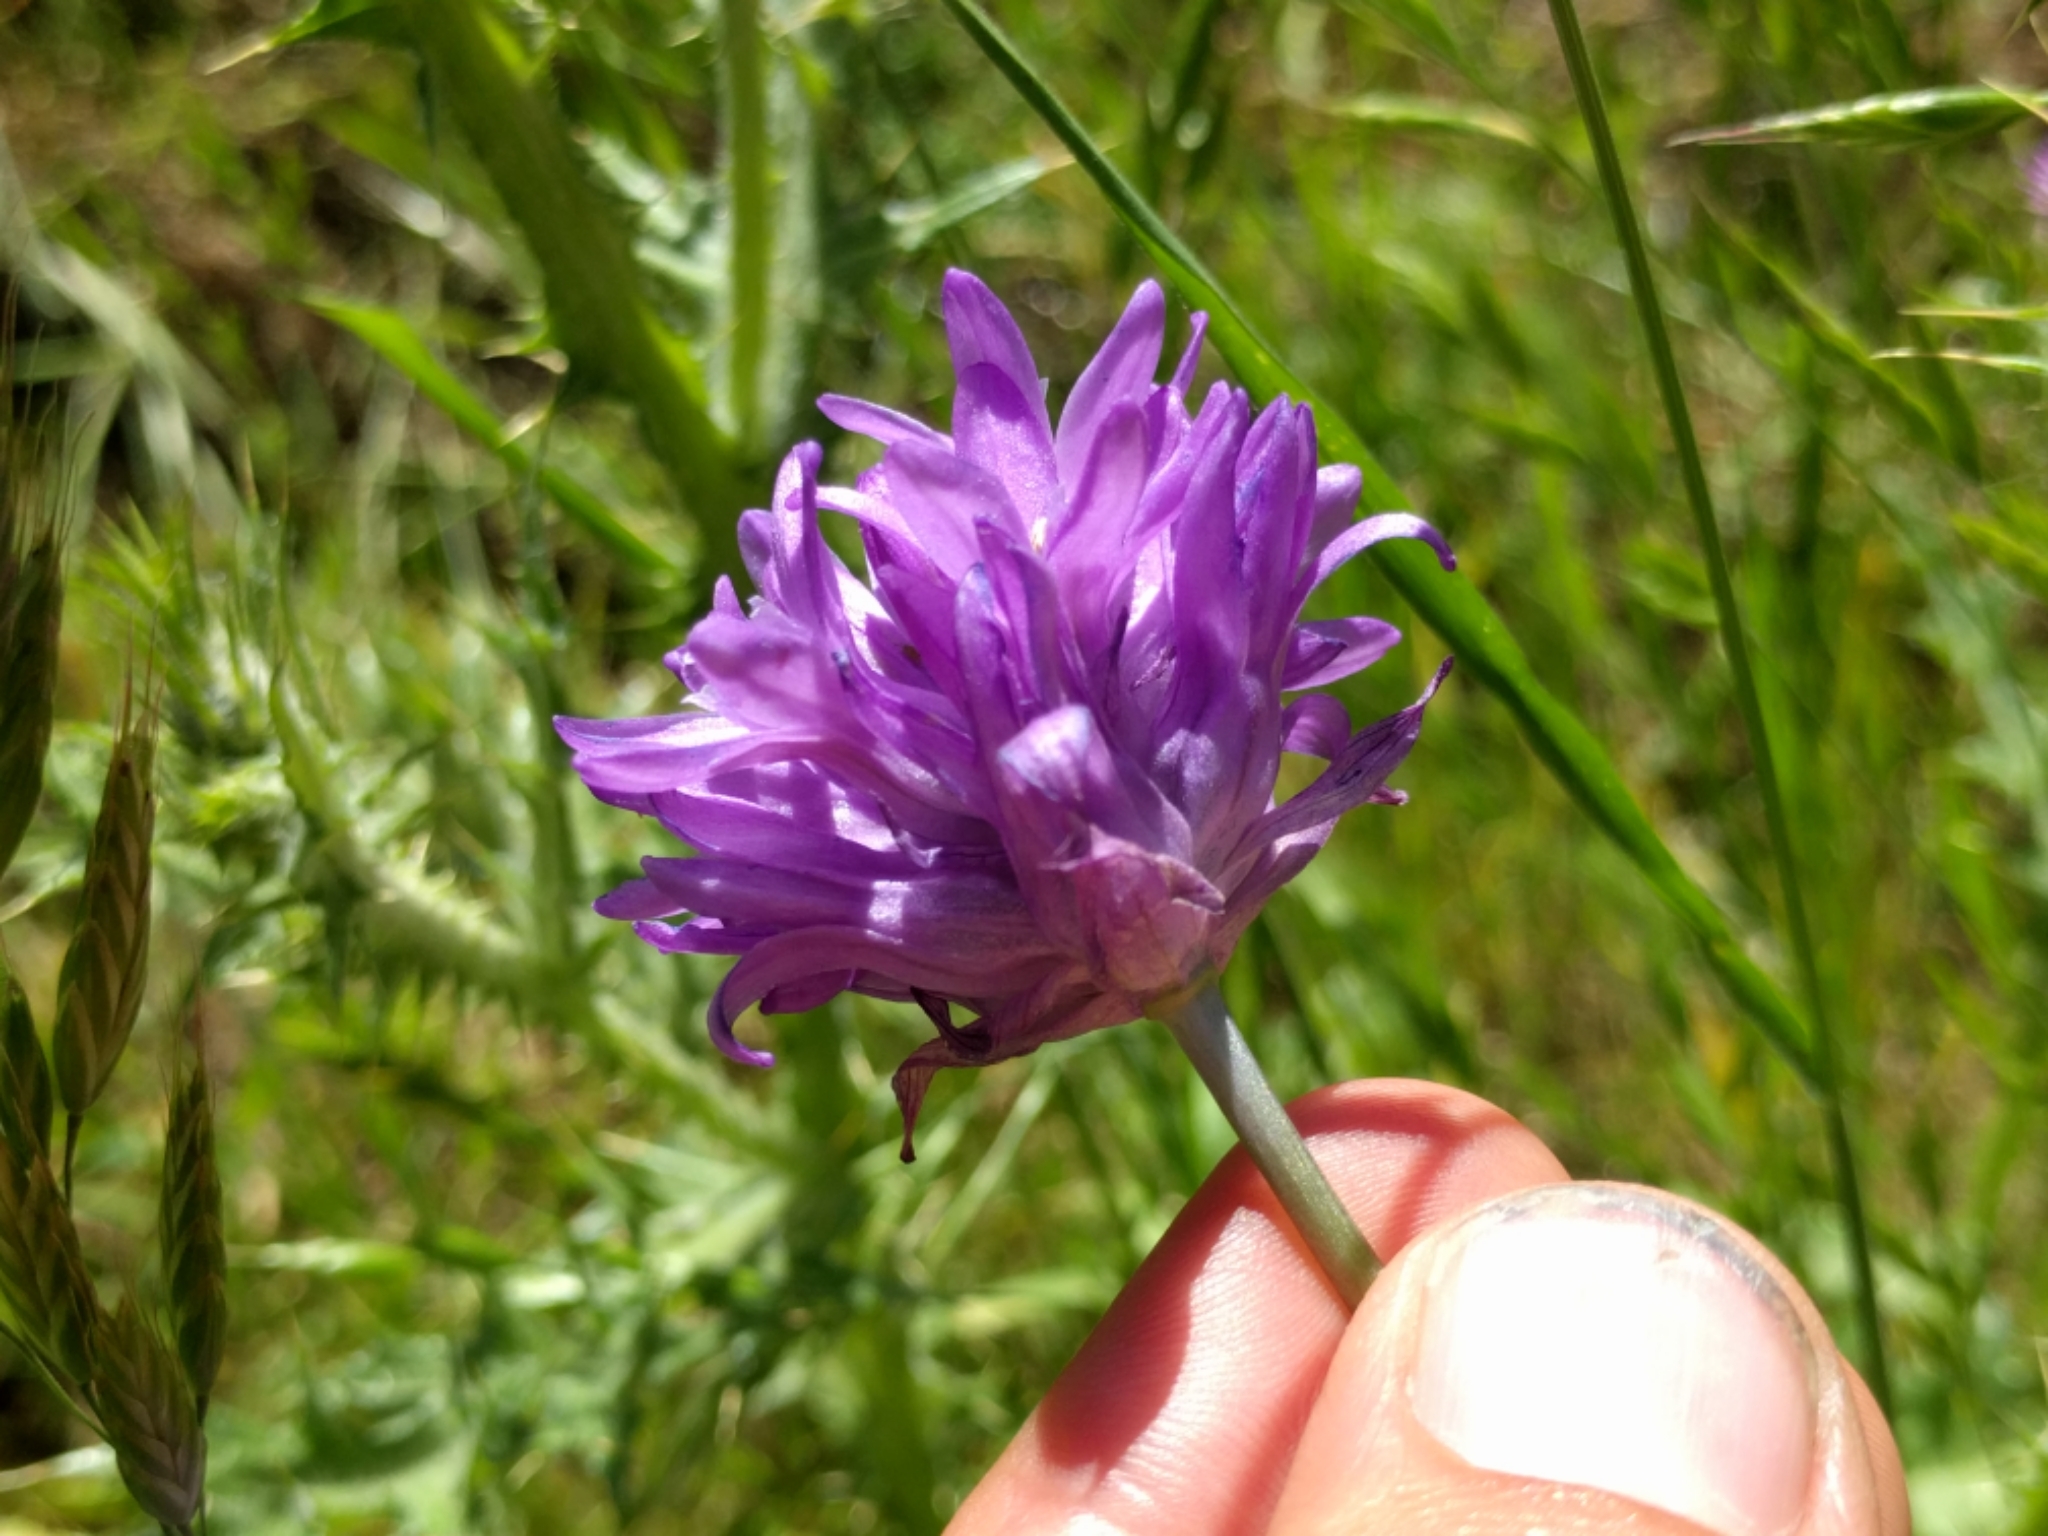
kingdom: Plantae
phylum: Tracheophyta
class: Liliopsida
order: Asparagales
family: Asparagaceae
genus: Dichelostemma
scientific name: Dichelostemma congestum
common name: Fork-tooth ookow
